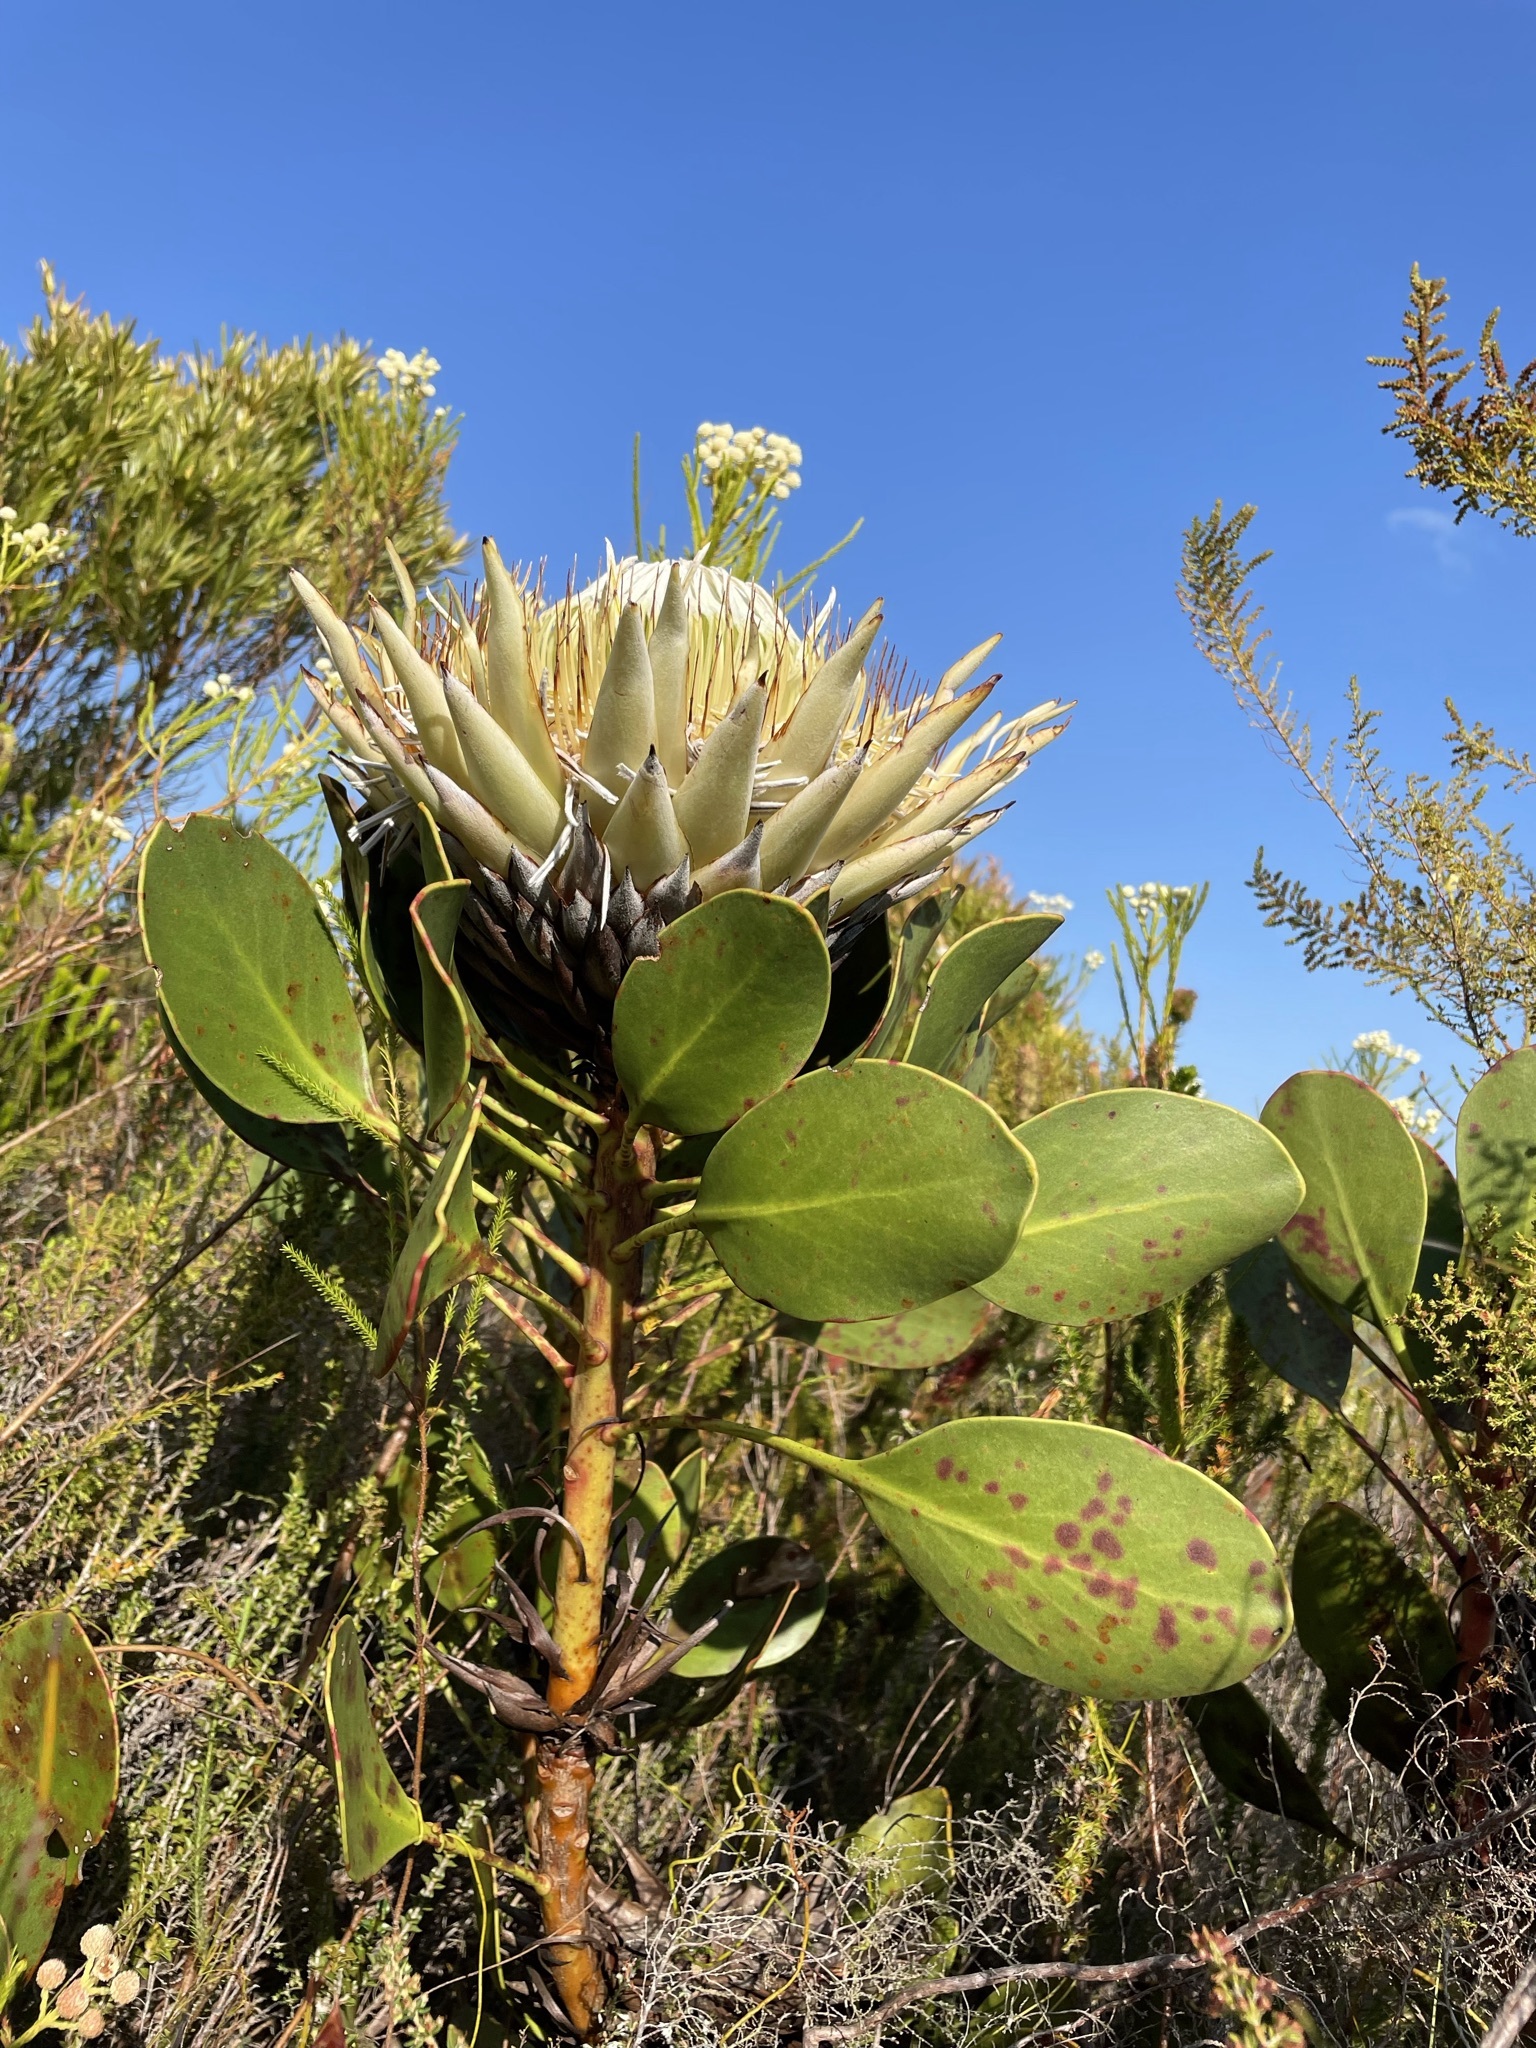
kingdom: Plantae
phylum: Tracheophyta
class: Magnoliopsida
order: Proteales
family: Proteaceae
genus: Protea
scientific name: Protea cynaroides
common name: King protea
